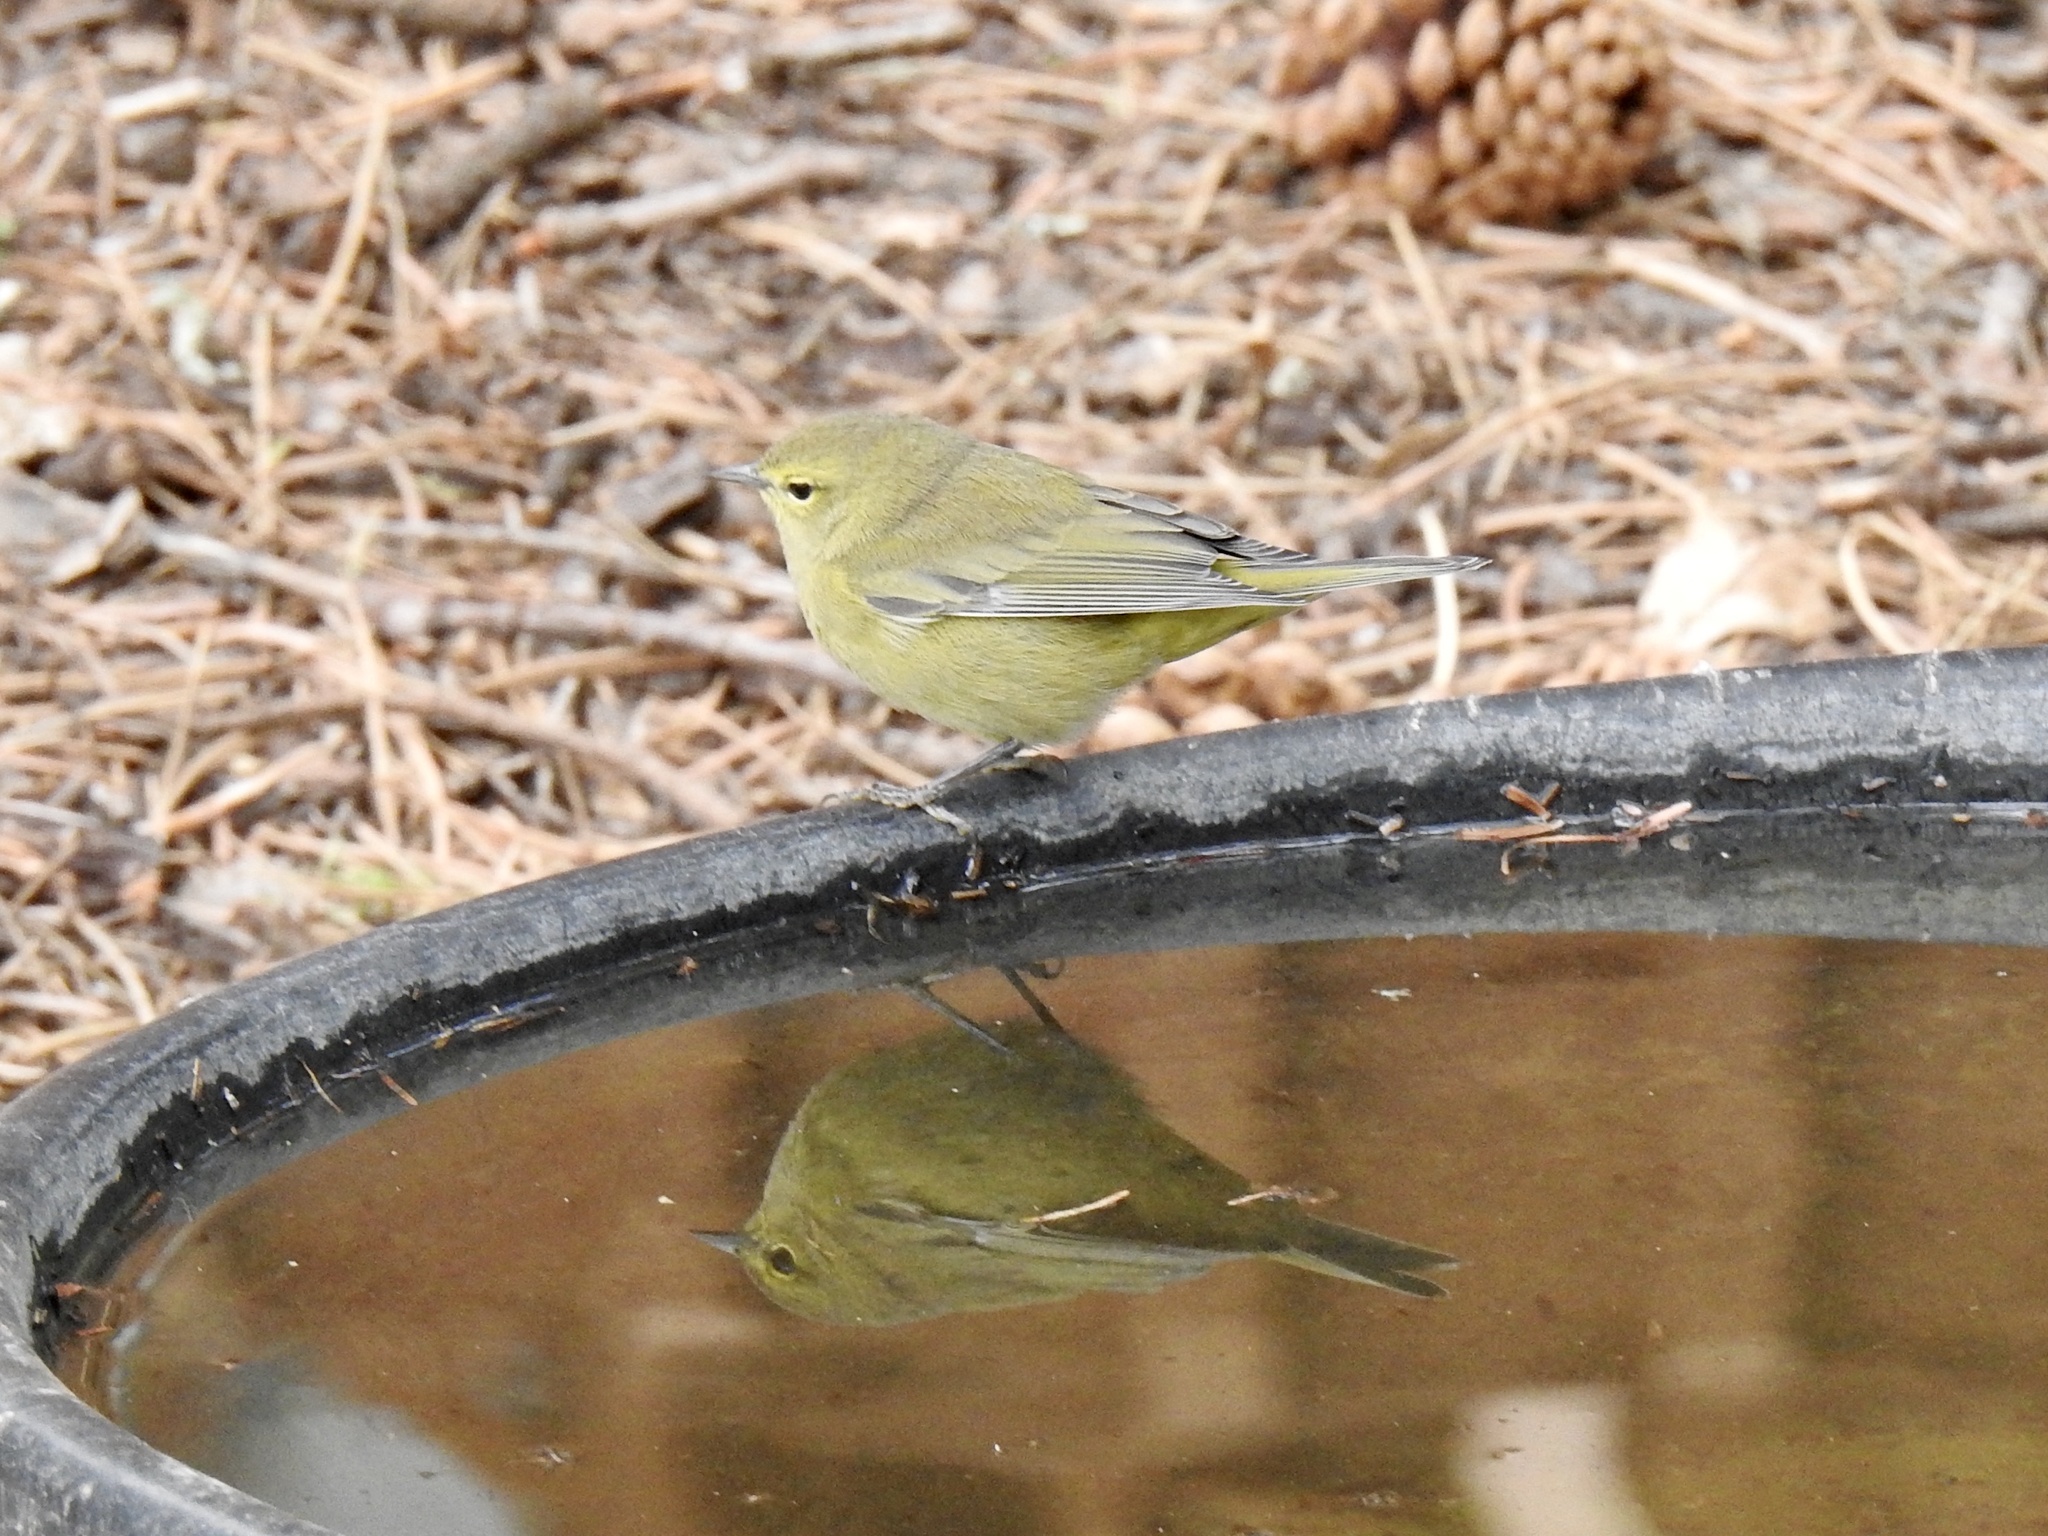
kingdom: Animalia
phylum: Chordata
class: Aves
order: Passeriformes
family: Parulidae
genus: Leiothlypis
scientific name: Leiothlypis celata
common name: Orange-crowned warbler
